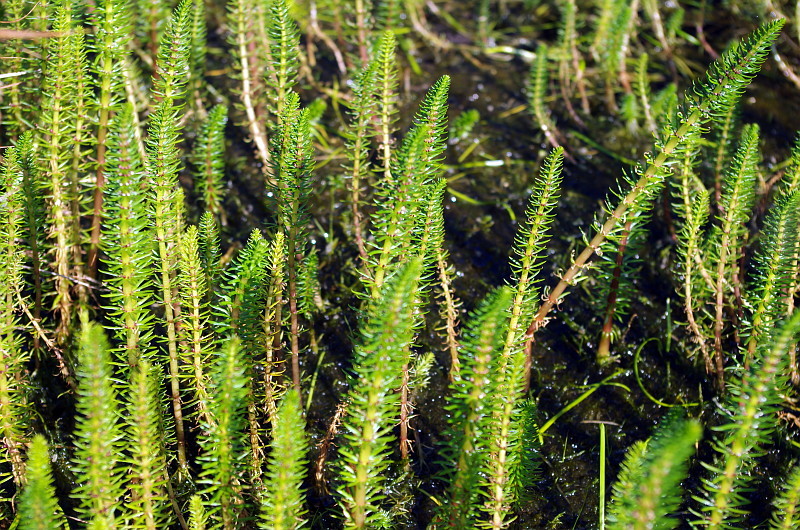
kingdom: Plantae
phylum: Tracheophyta
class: Magnoliopsida
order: Lamiales
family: Plantaginaceae
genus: Hippuris
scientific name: Hippuris vulgaris
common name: Mare's-tail
